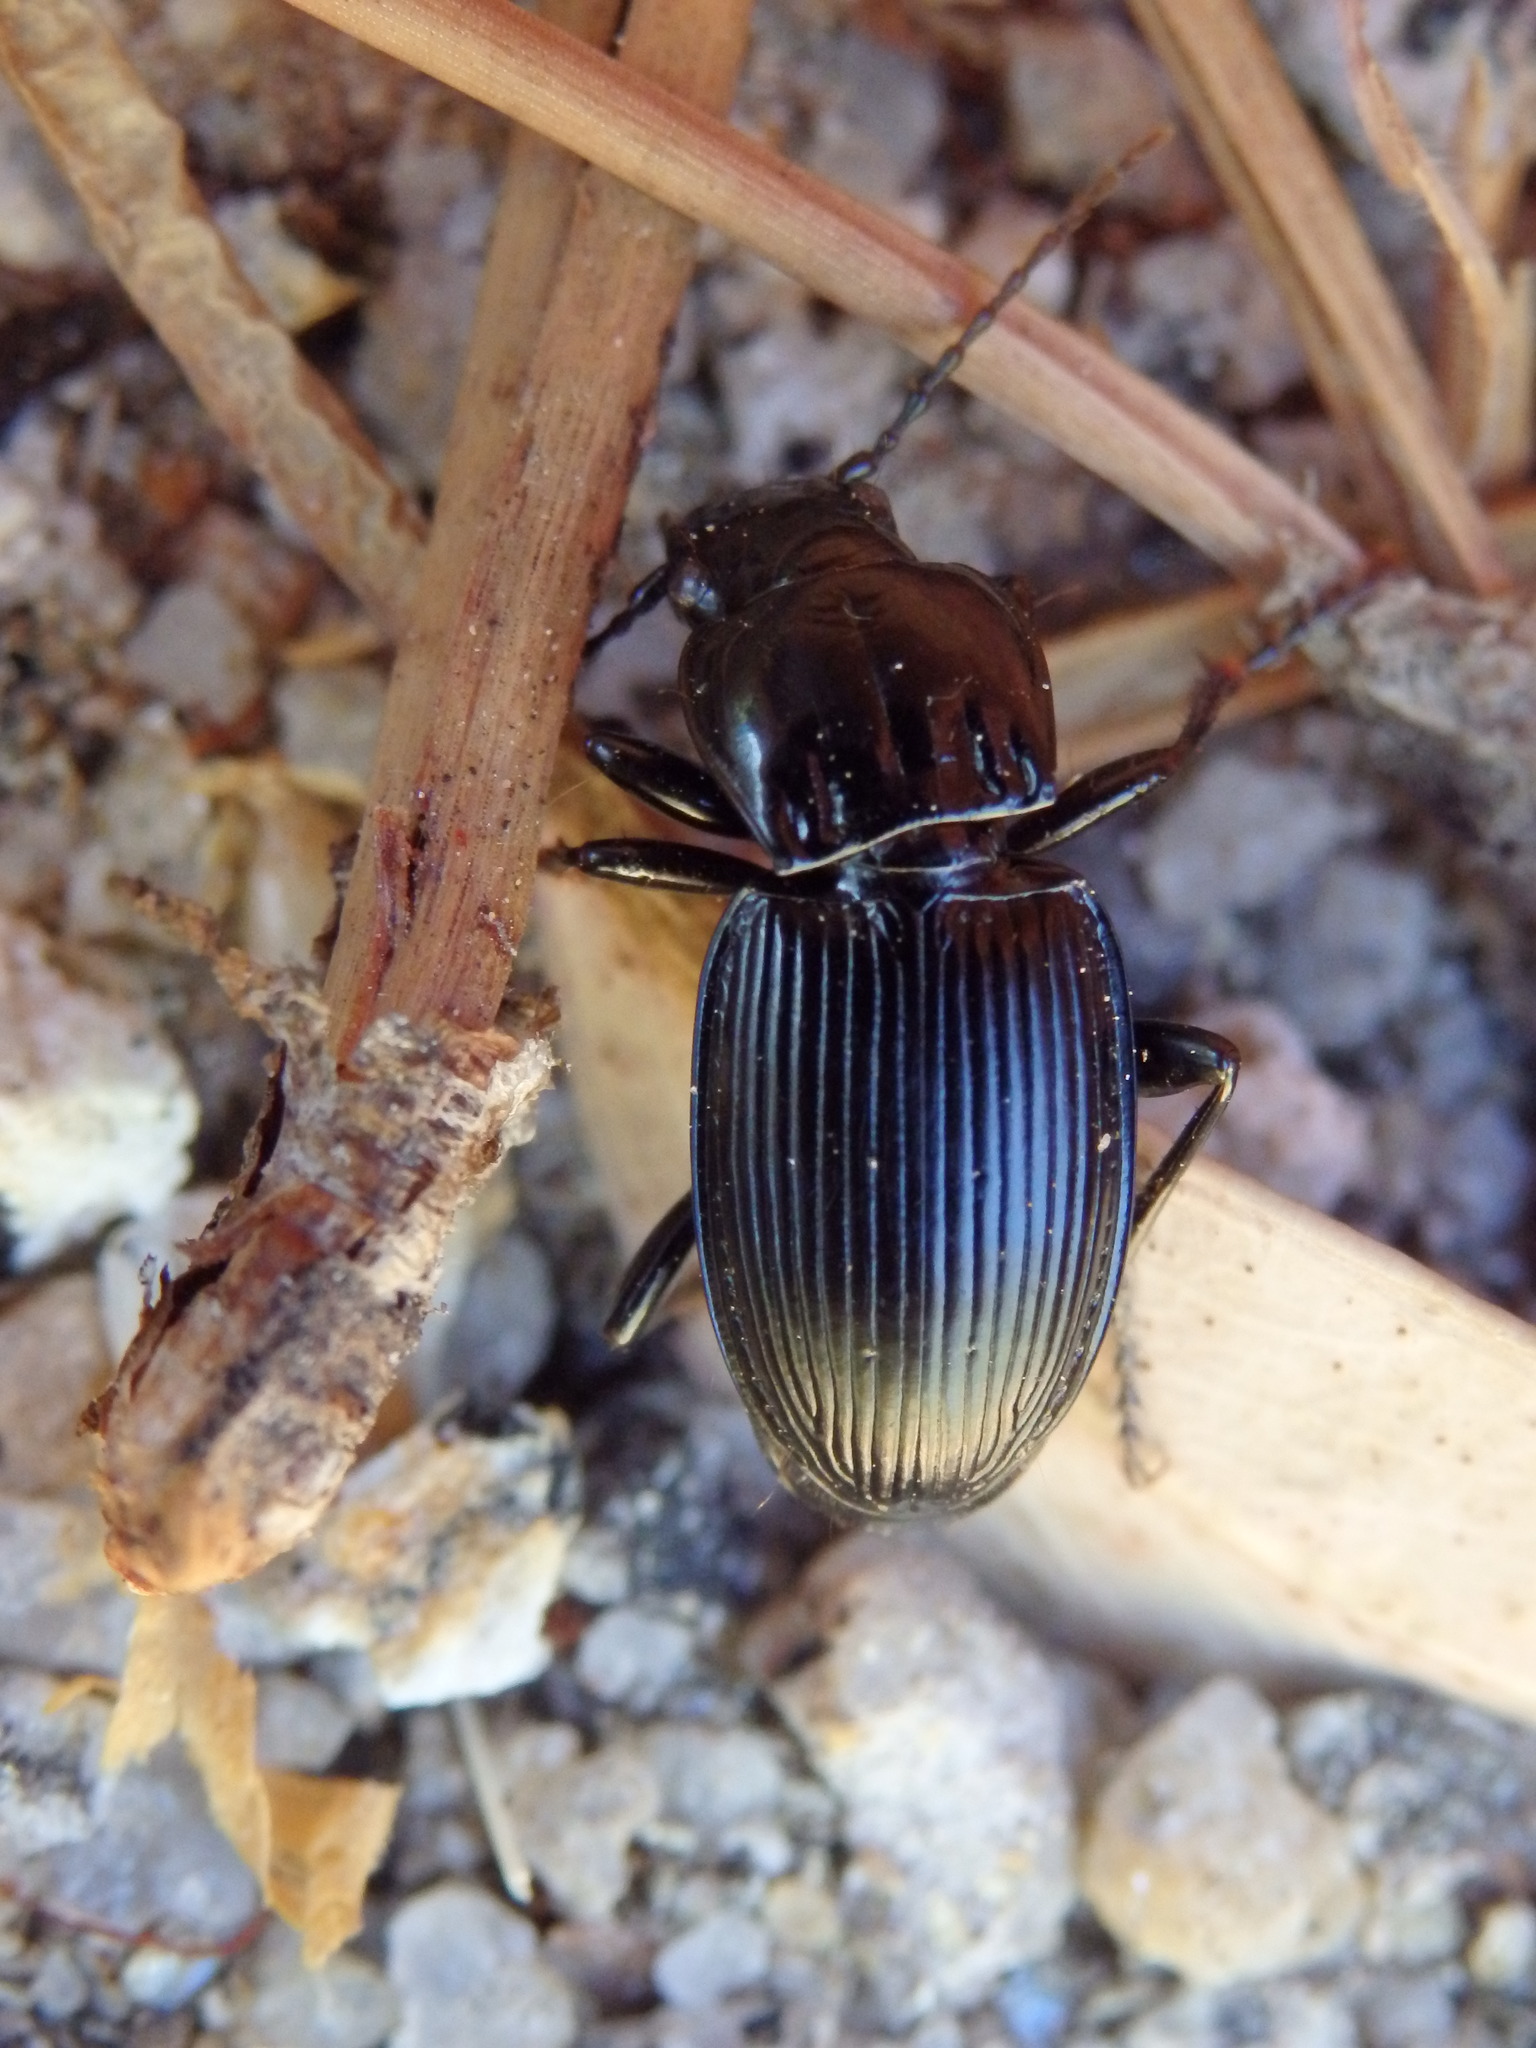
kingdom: Animalia
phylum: Arthropoda
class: Insecta
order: Coleoptera
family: Carabidae
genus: Pterostichus
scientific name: Pterostichus ebenus
